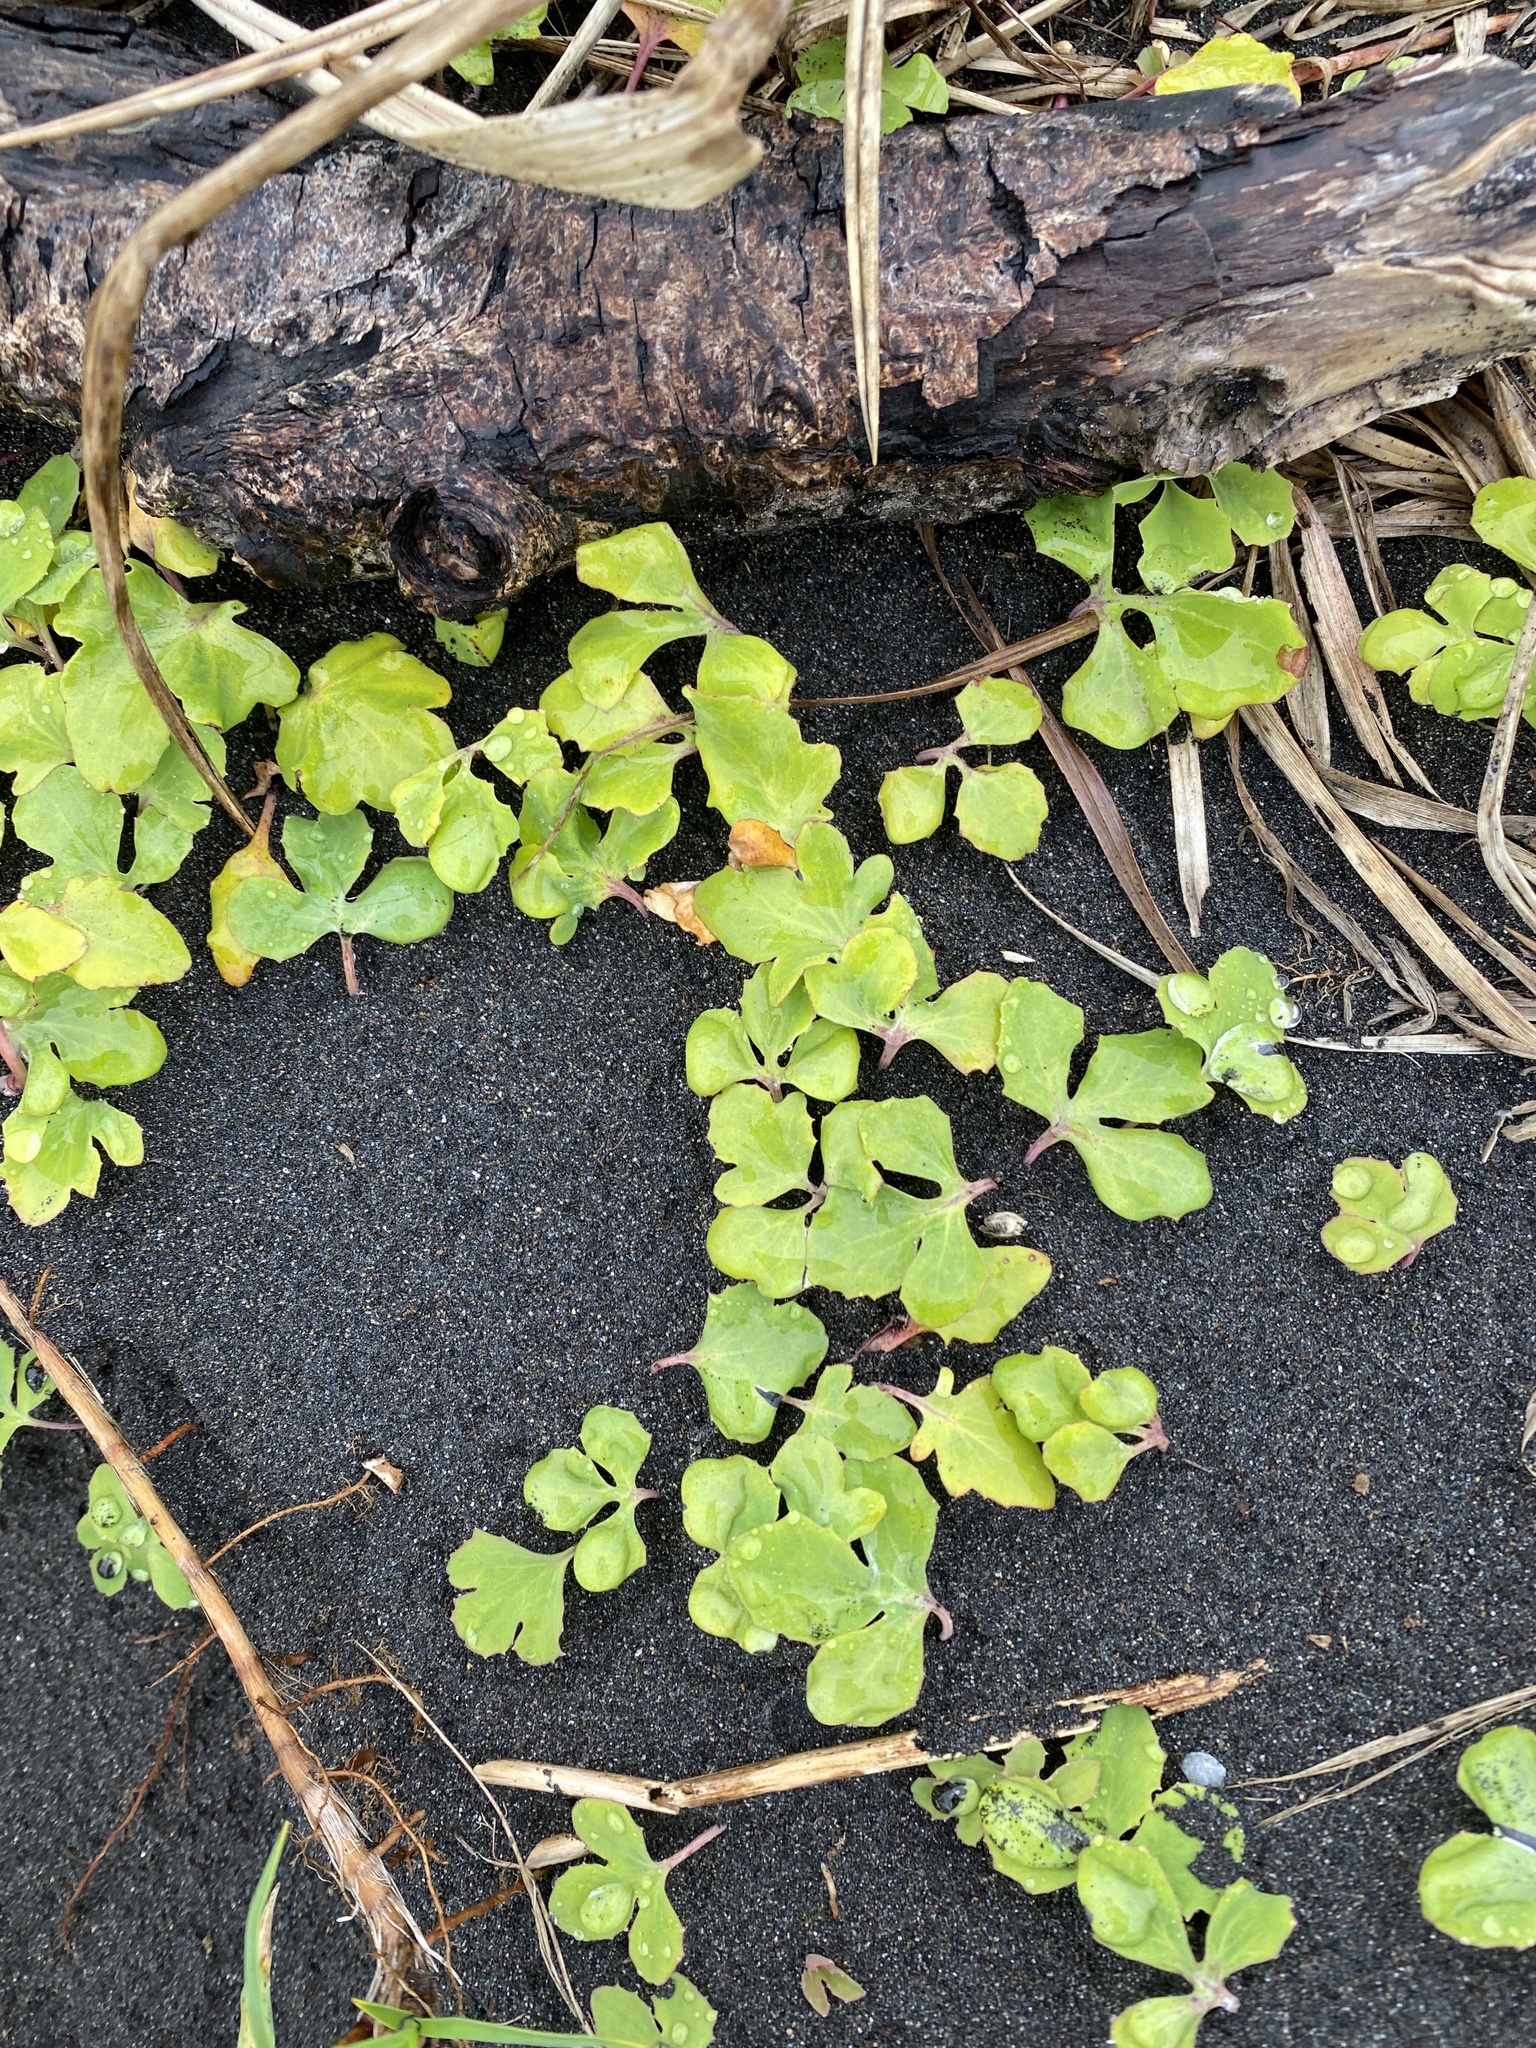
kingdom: Plantae
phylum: Tracheophyta
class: Magnoliopsida
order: Asterales
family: Asteraceae
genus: Ixeris
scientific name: Ixeris repens
